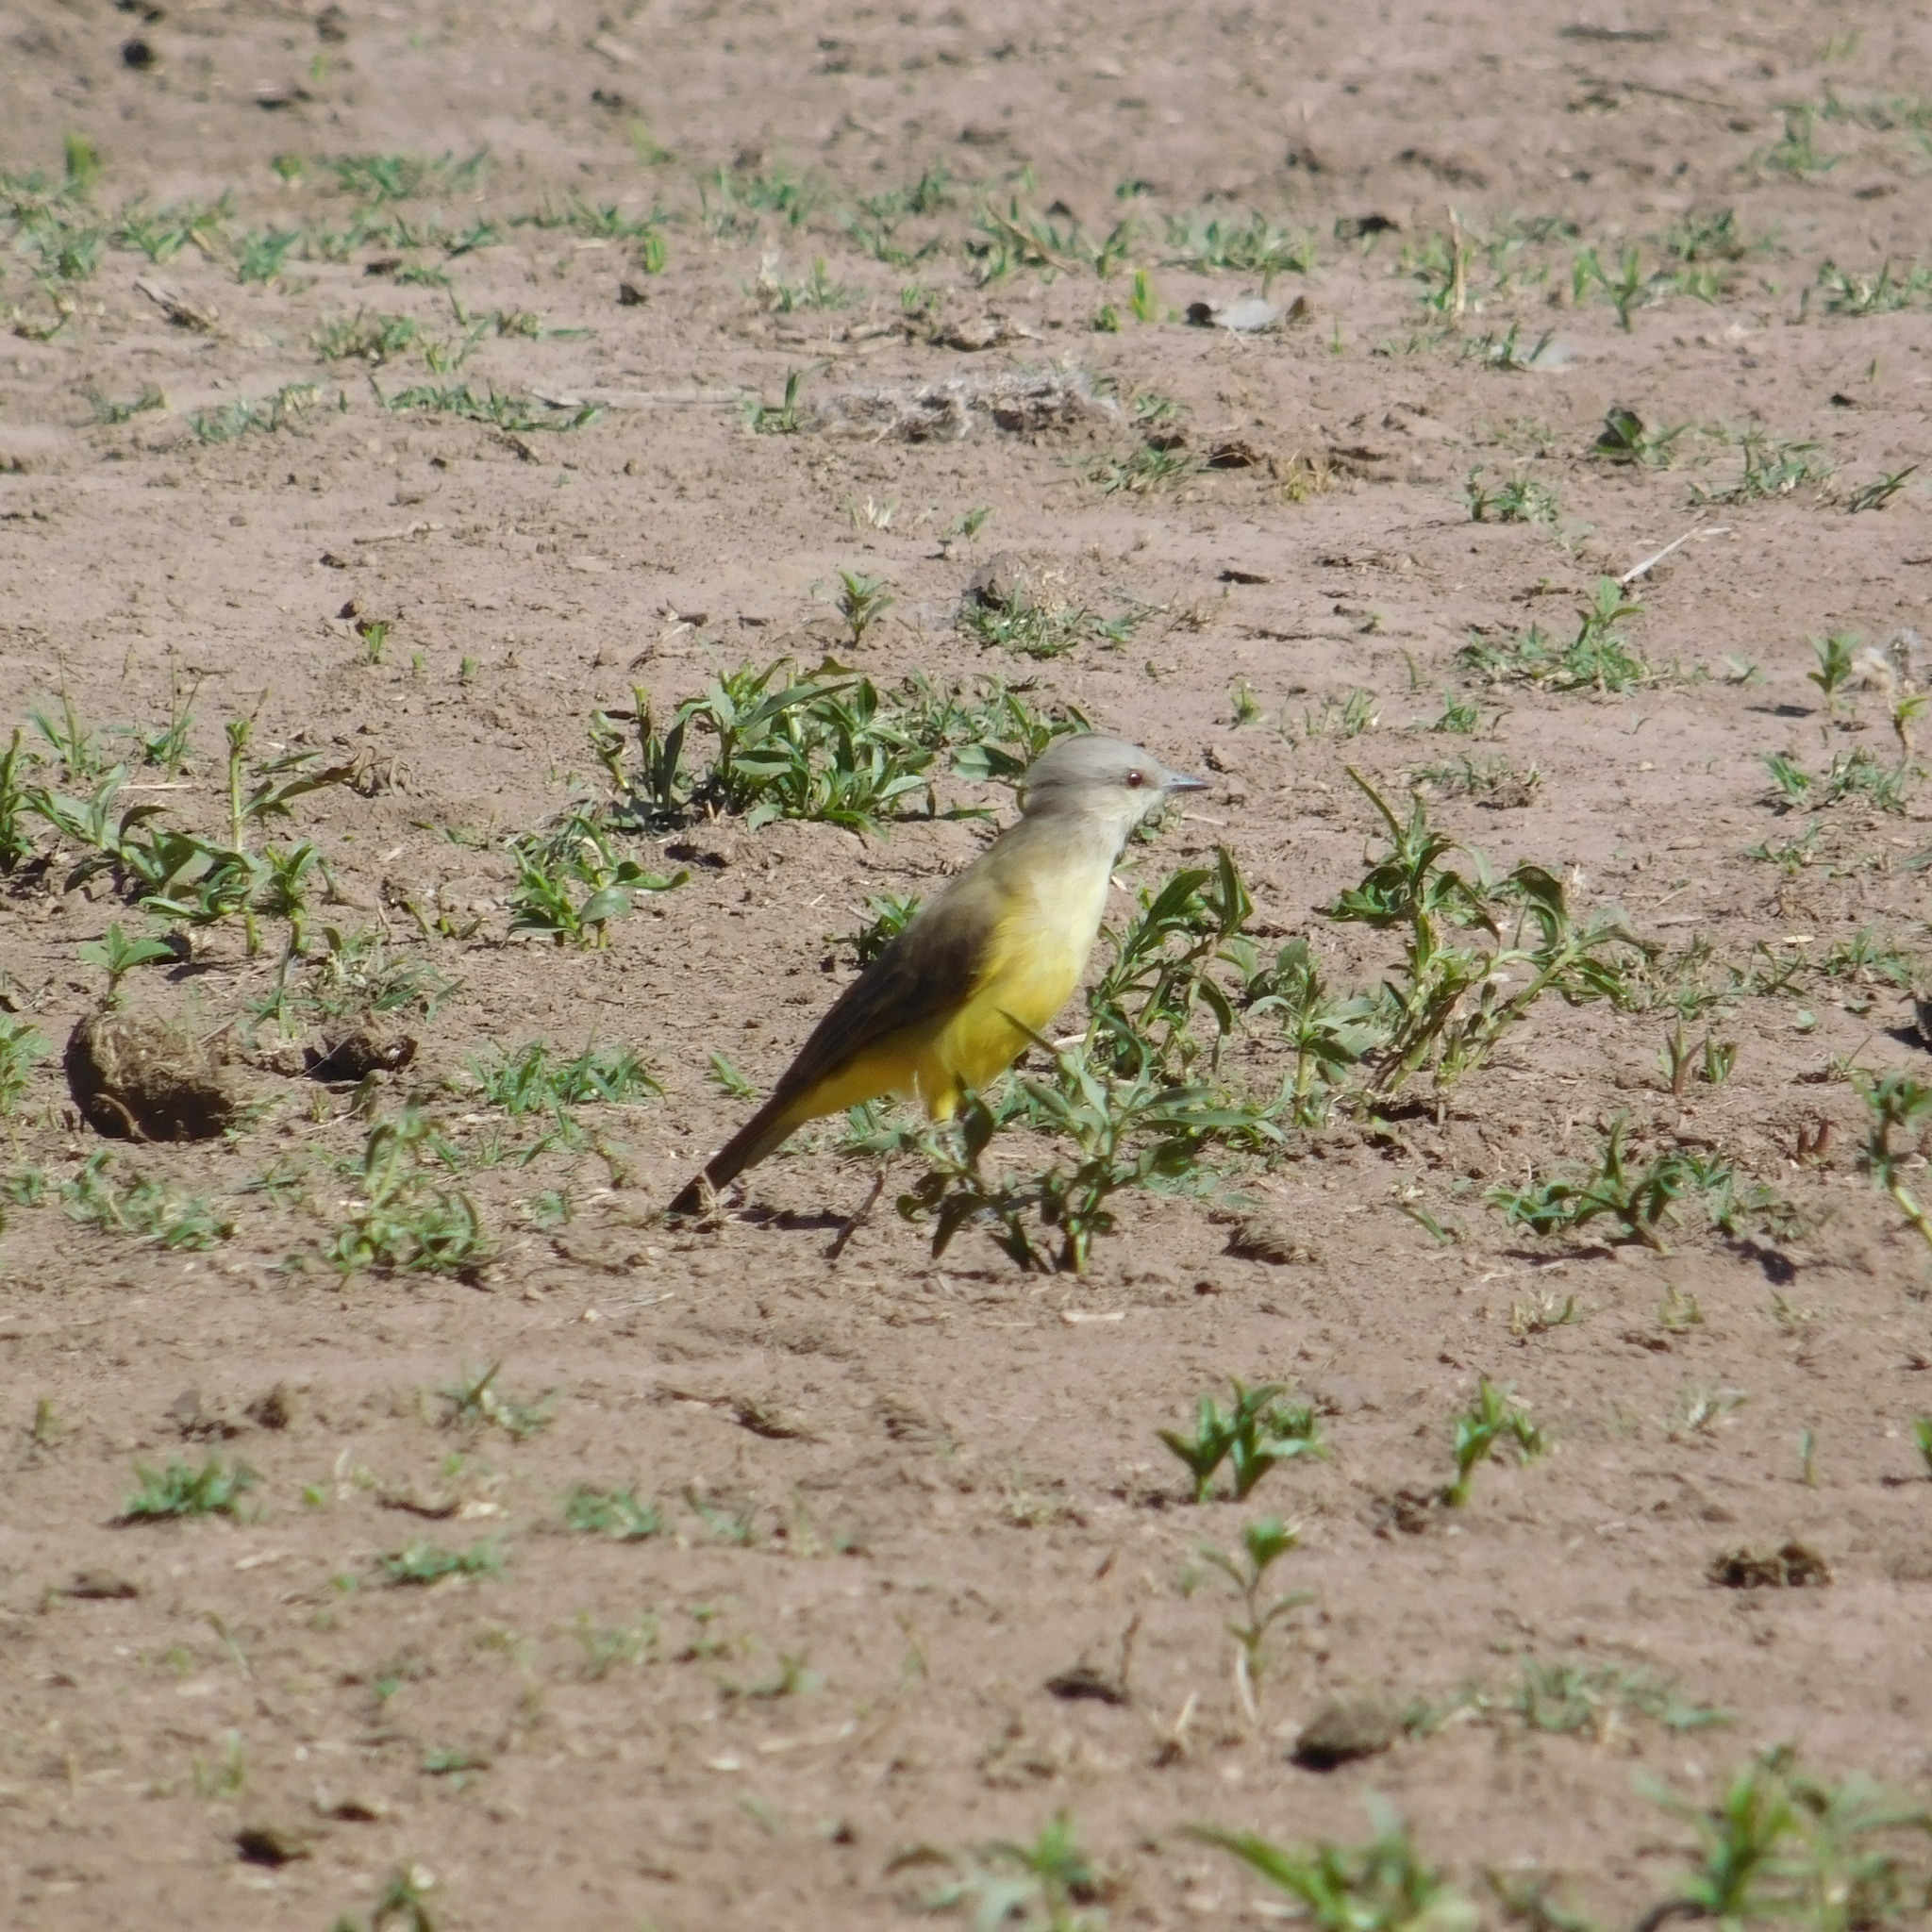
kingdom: Animalia
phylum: Chordata
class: Aves
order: Passeriformes
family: Tyrannidae
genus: Machetornis
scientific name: Machetornis rixosa
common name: Cattle tyrant
